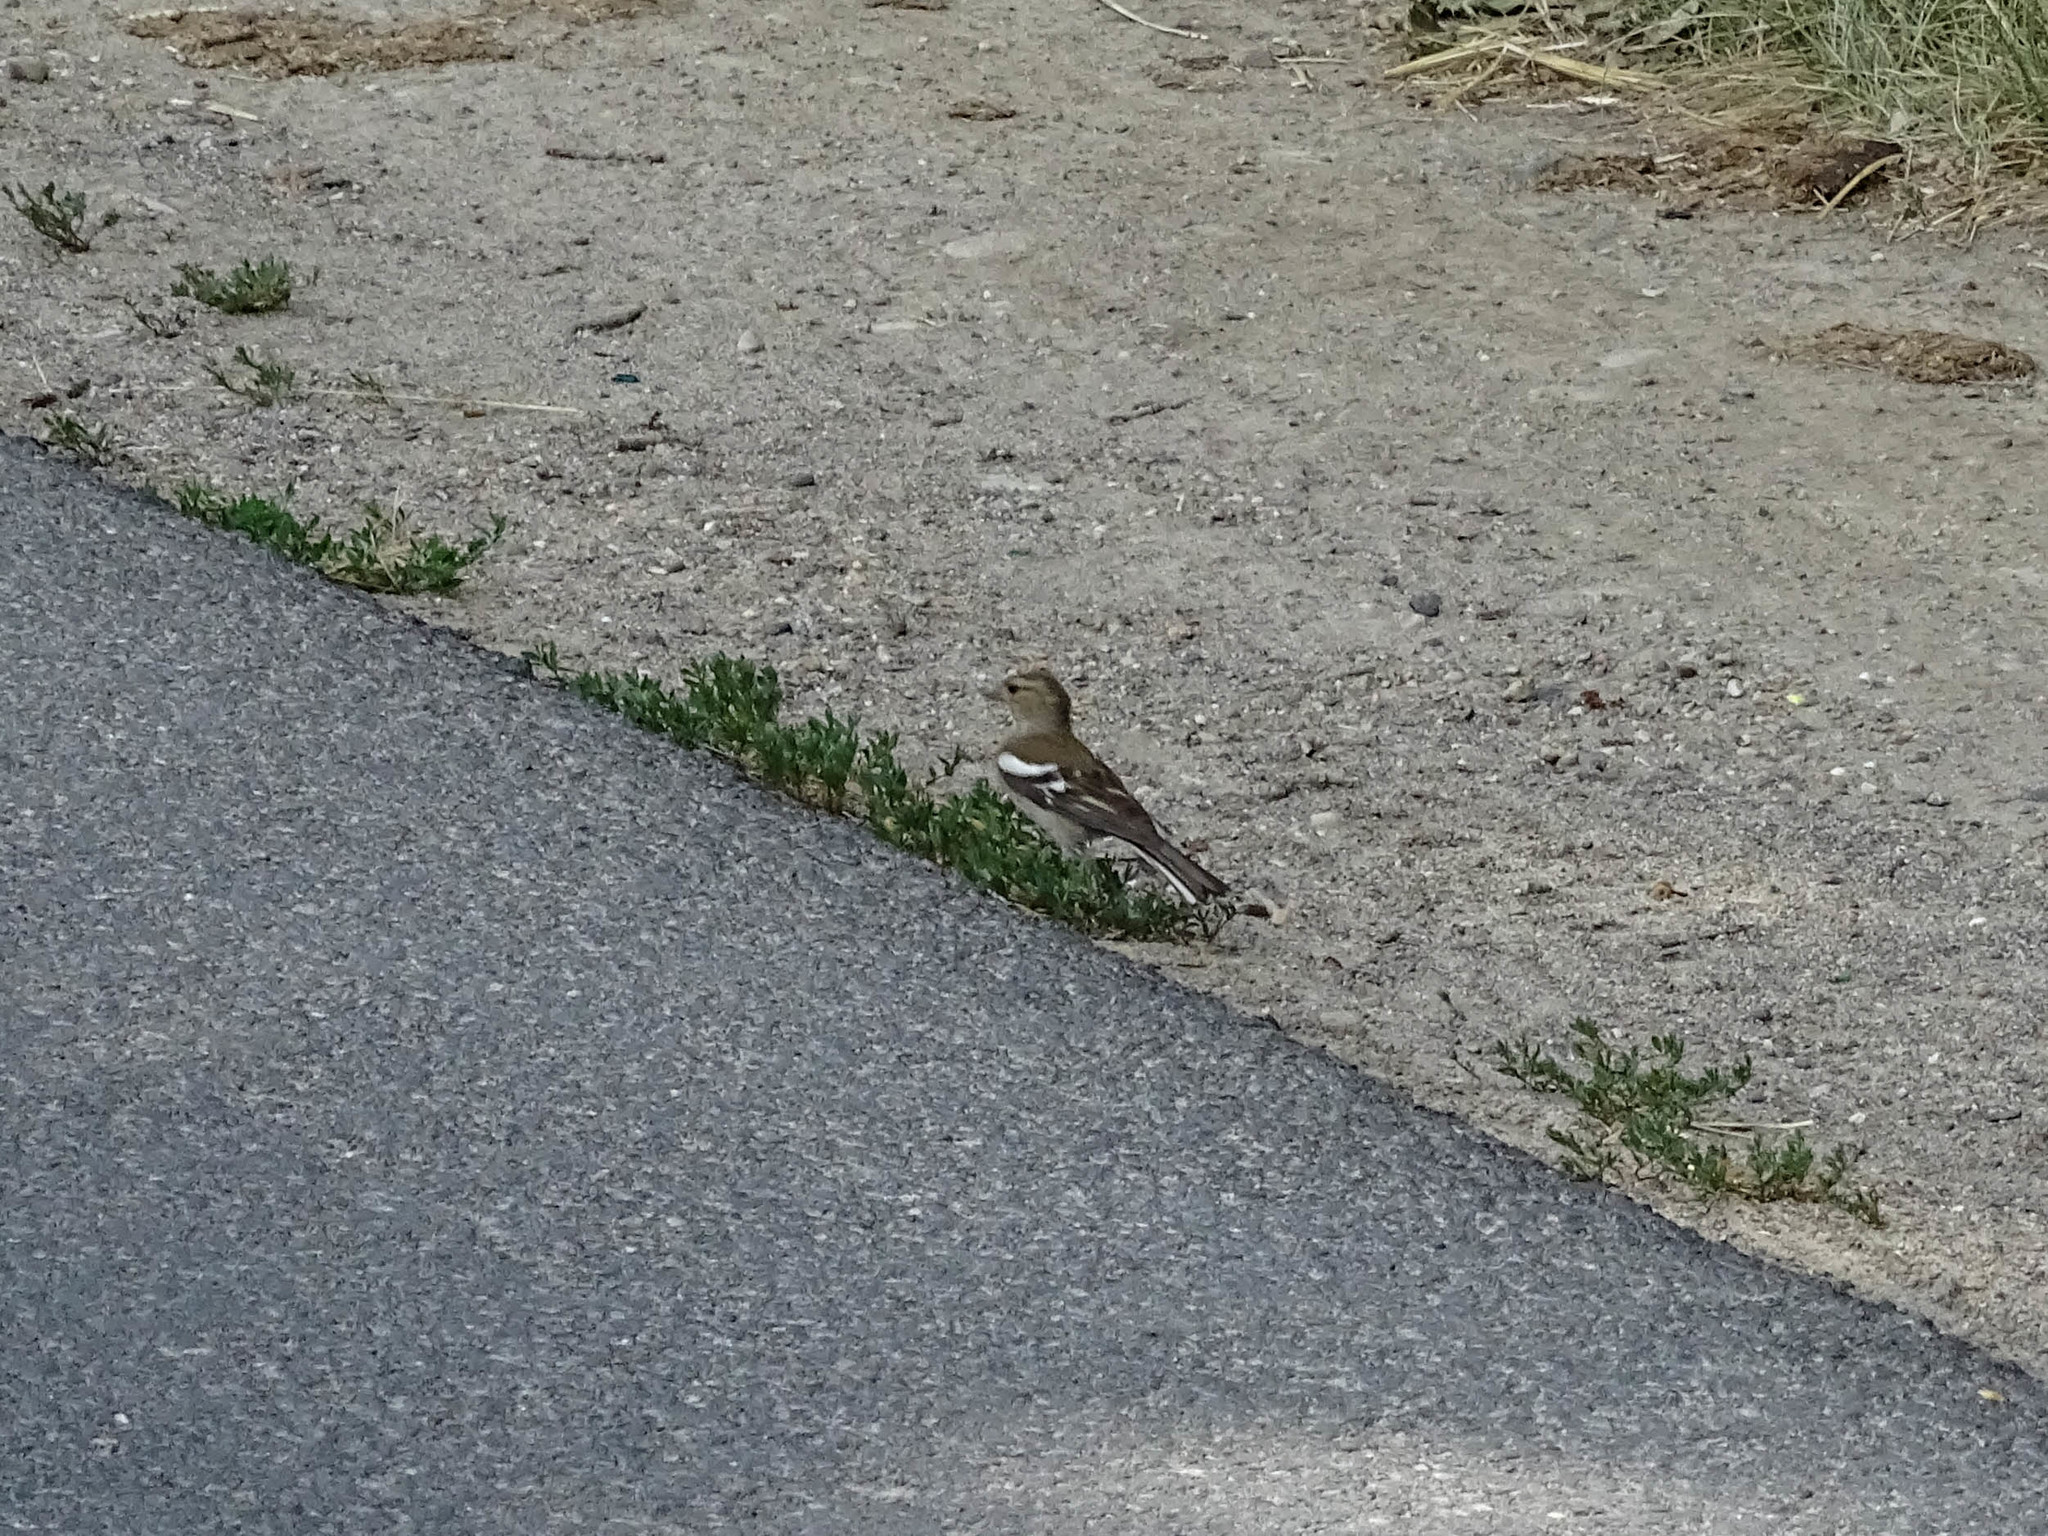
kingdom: Animalia
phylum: Chordata
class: Aves
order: Passeriformes
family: Fringillidae
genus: Fringilla
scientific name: Fringilla coelebs
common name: Common chaffinch
